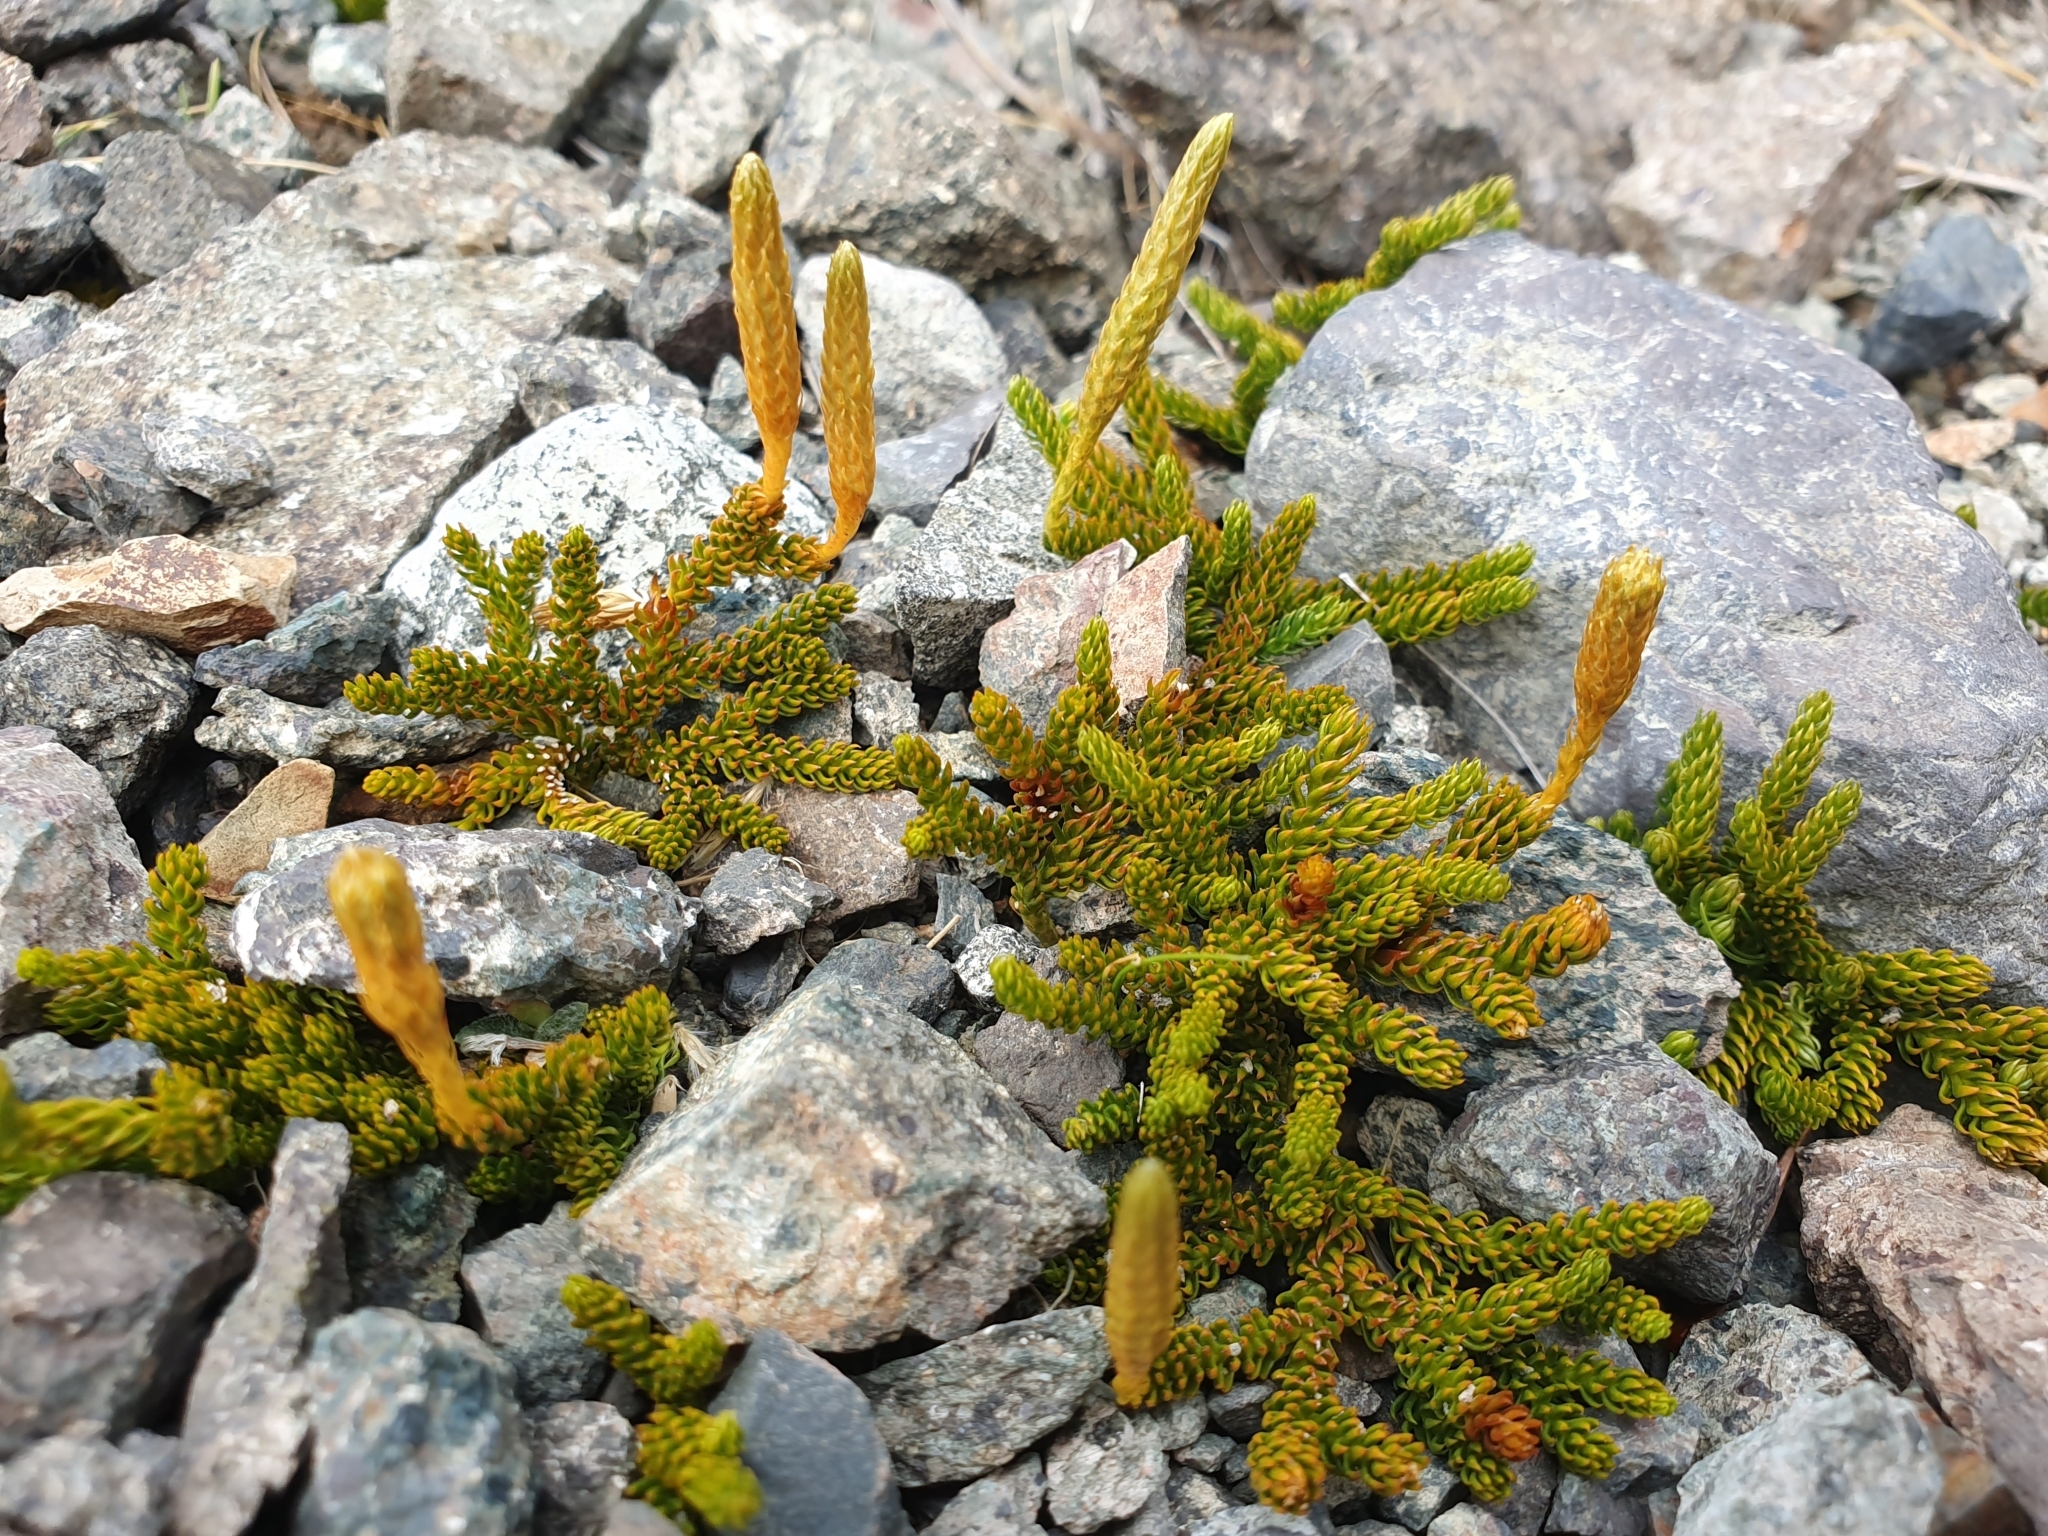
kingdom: Plantae
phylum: Tracheophyta
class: Lycopodiopsida
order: Lycopodiales
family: Lycopodiaceae
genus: Austrolycopodium
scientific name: Austrolycopodium fastigiatum
